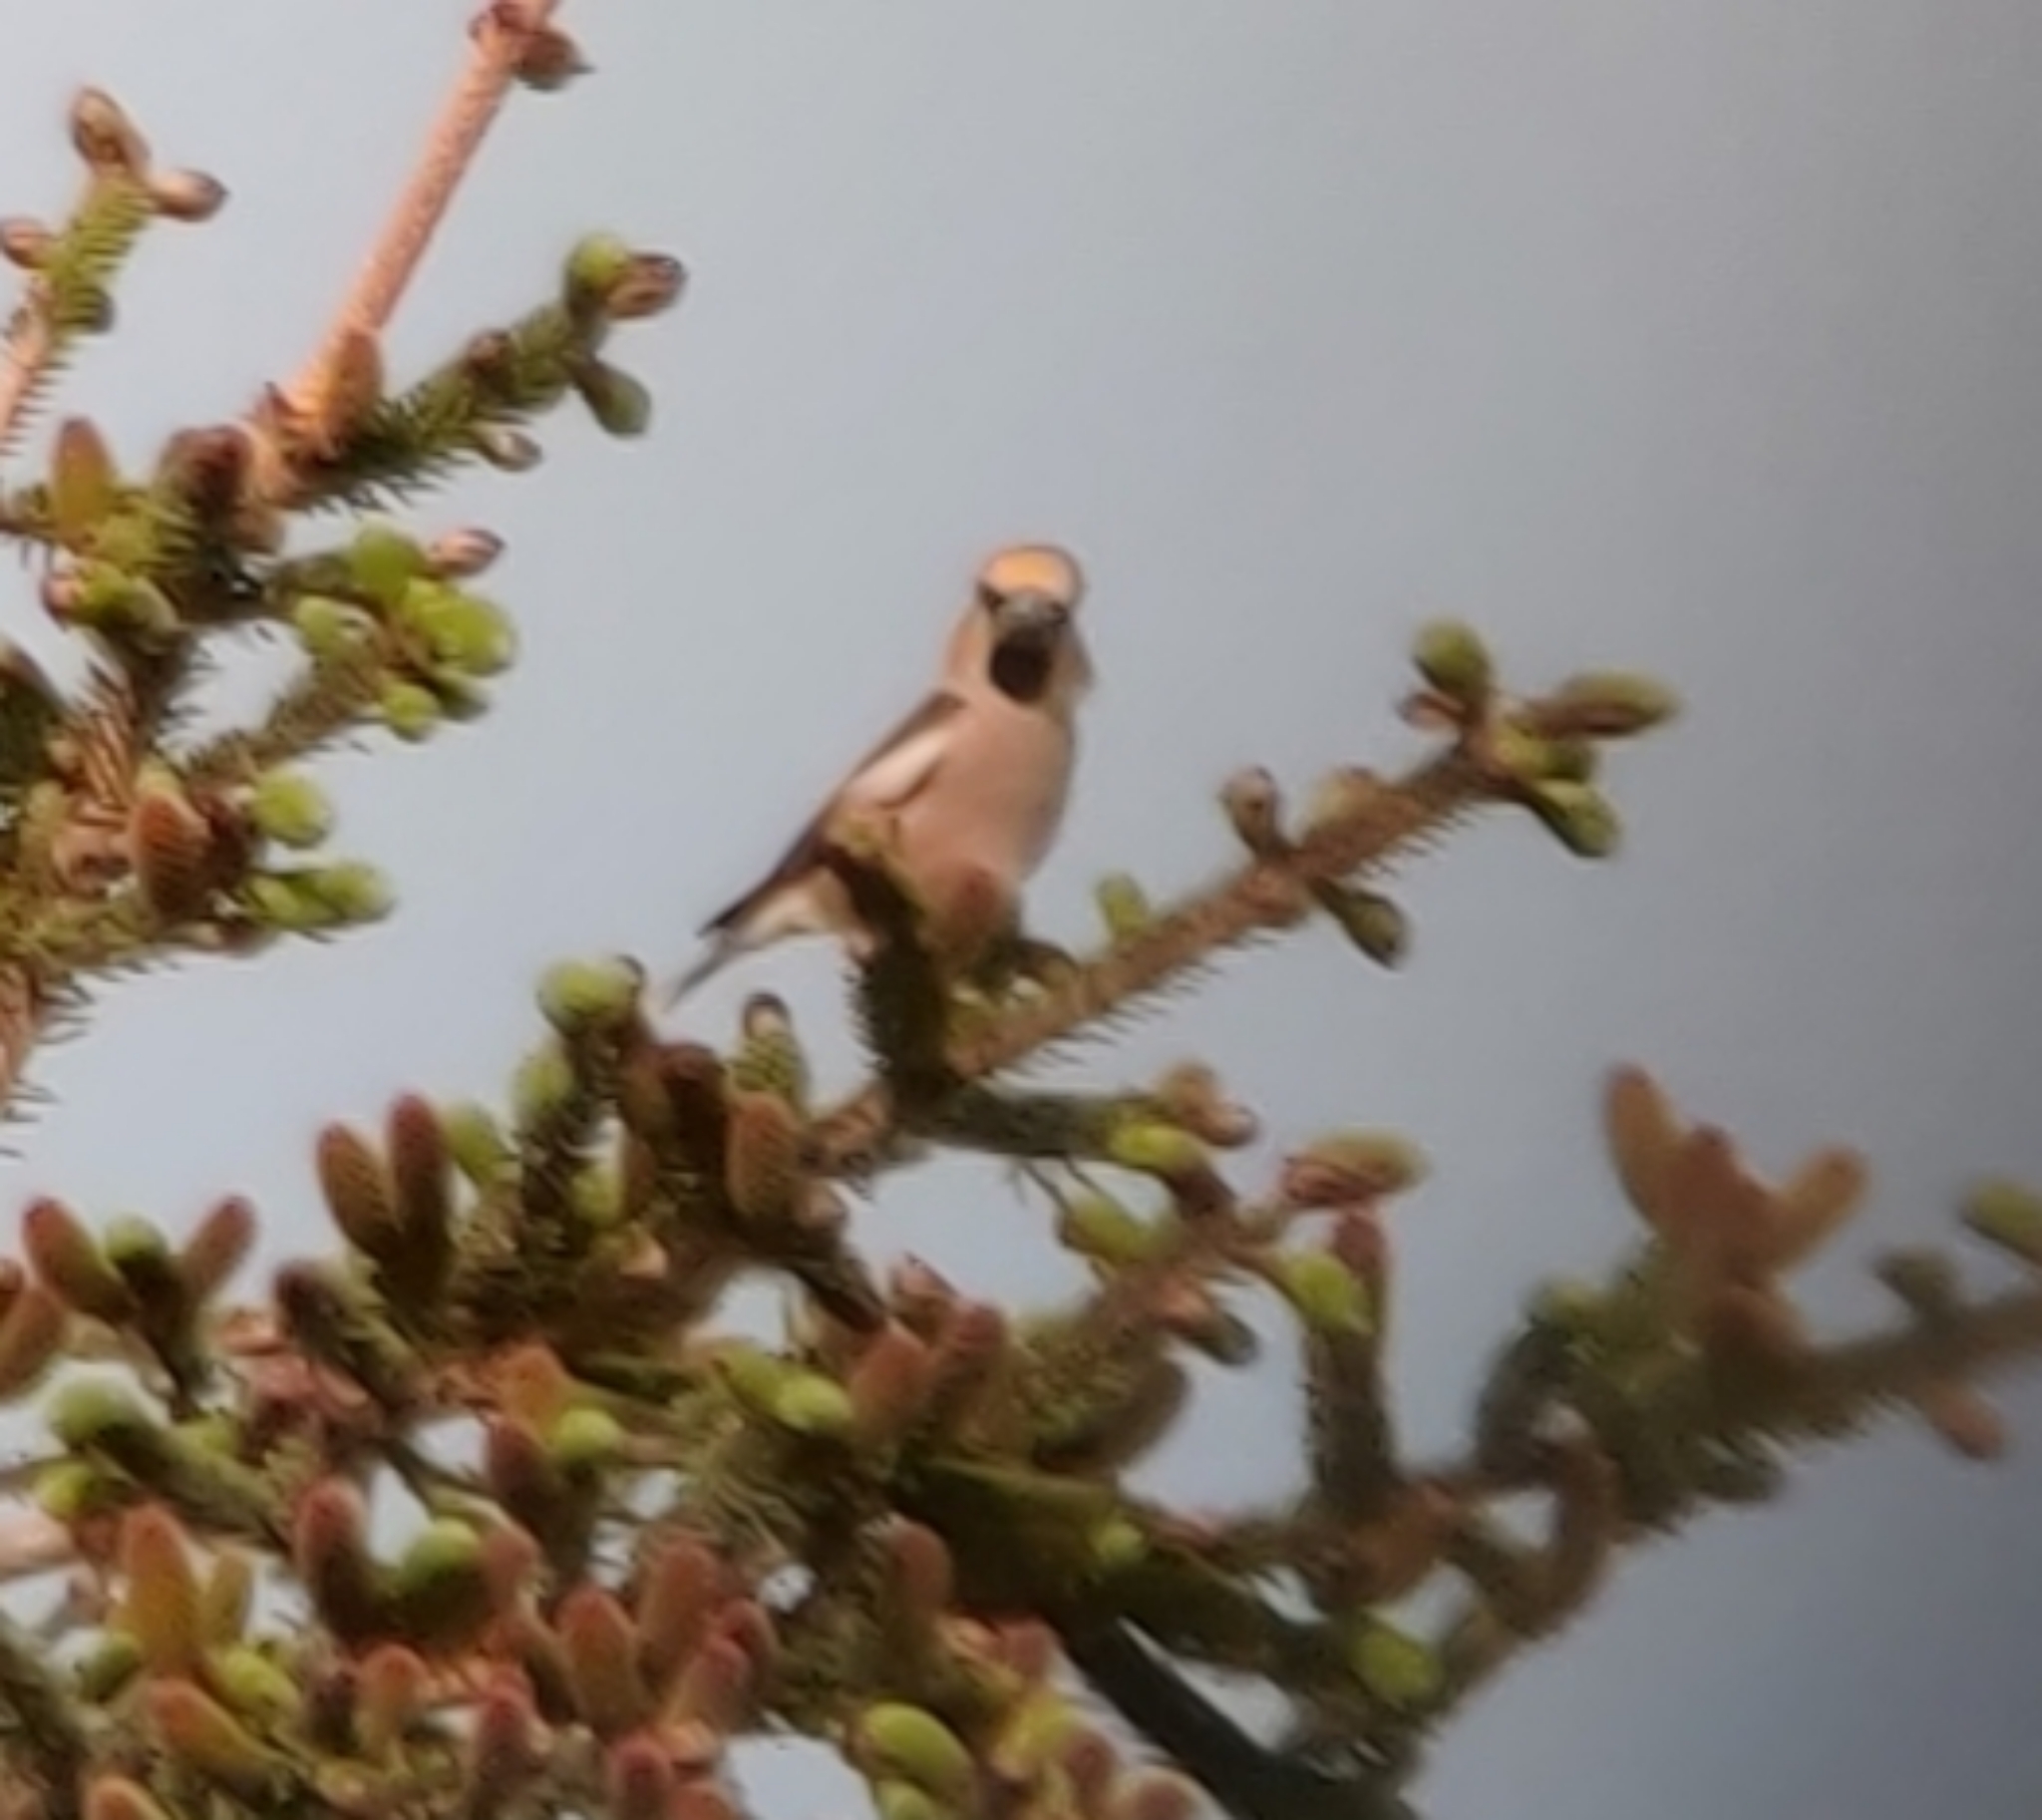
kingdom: Animalia
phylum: Chordata
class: Aves
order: Passeriformes
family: Fringillidae
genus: Coccothraustes
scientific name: Coccothraustes coccothraustes
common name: Hawfinch
